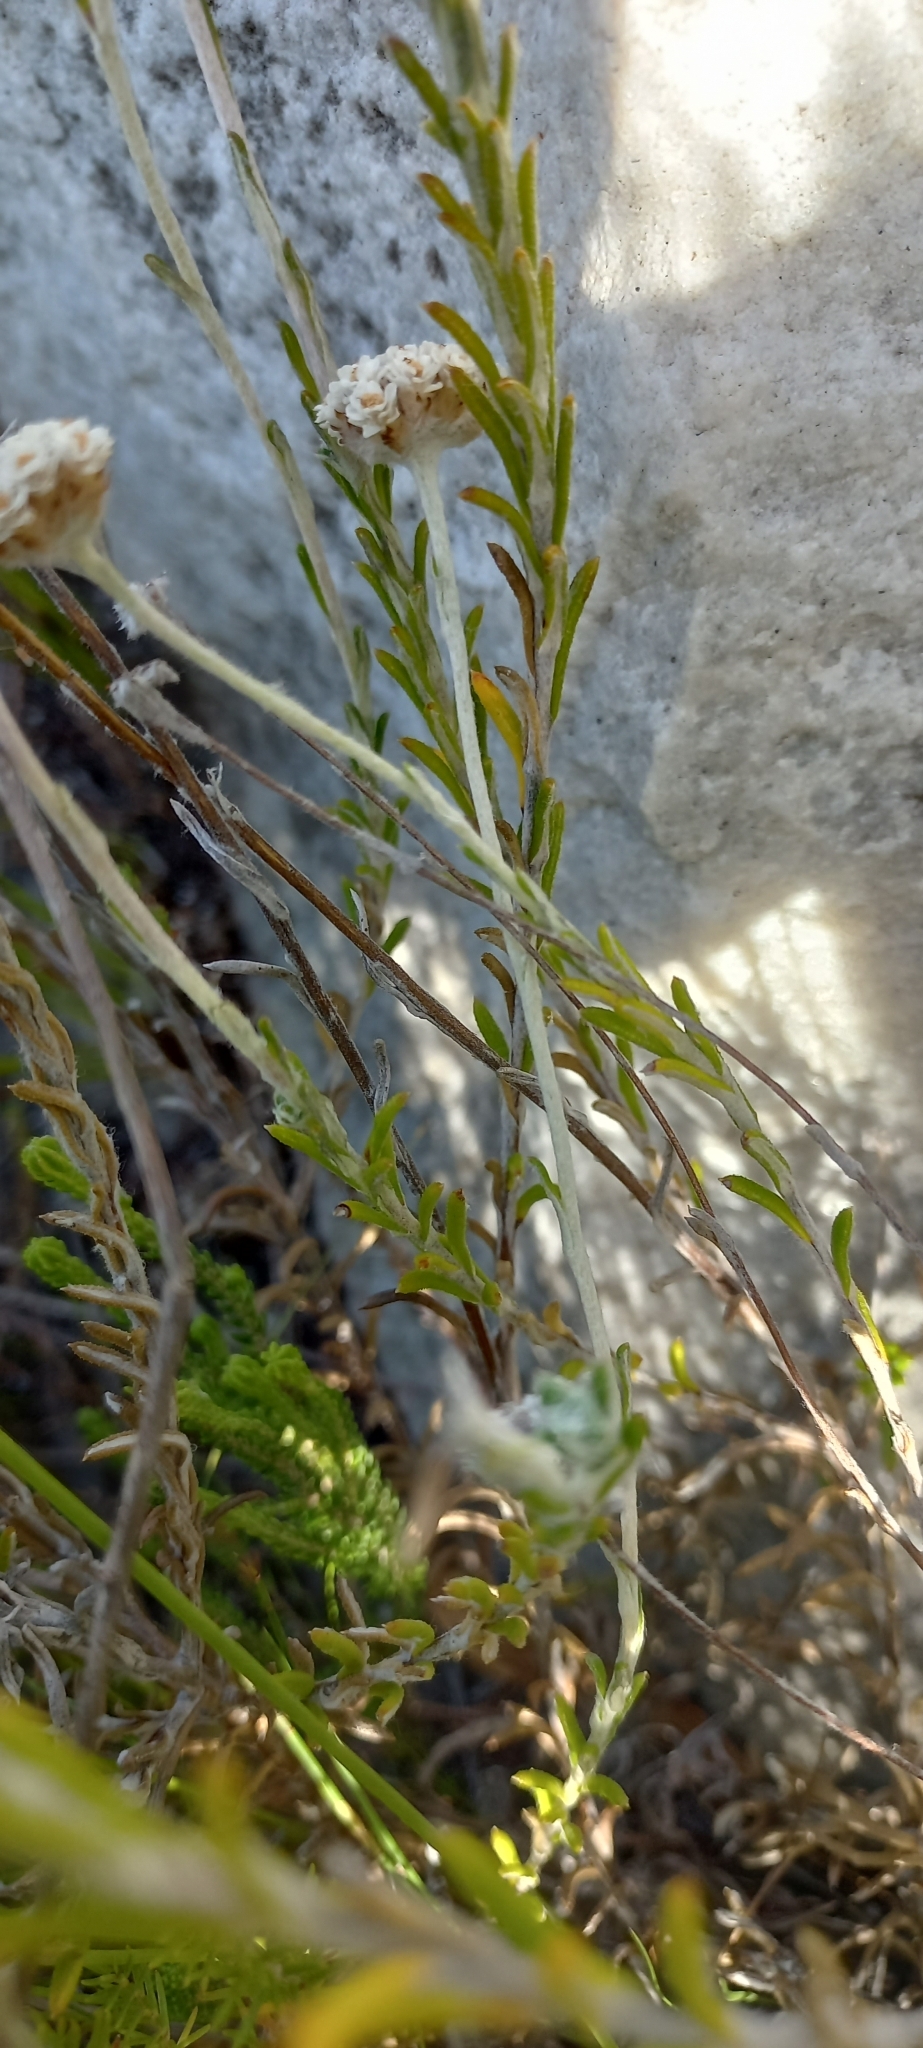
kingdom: Plantae
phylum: Tracheophyta
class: Magnoliopsida
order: Asterales
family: Asteraceae
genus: Anaxeton
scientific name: Anaxeton asperum
